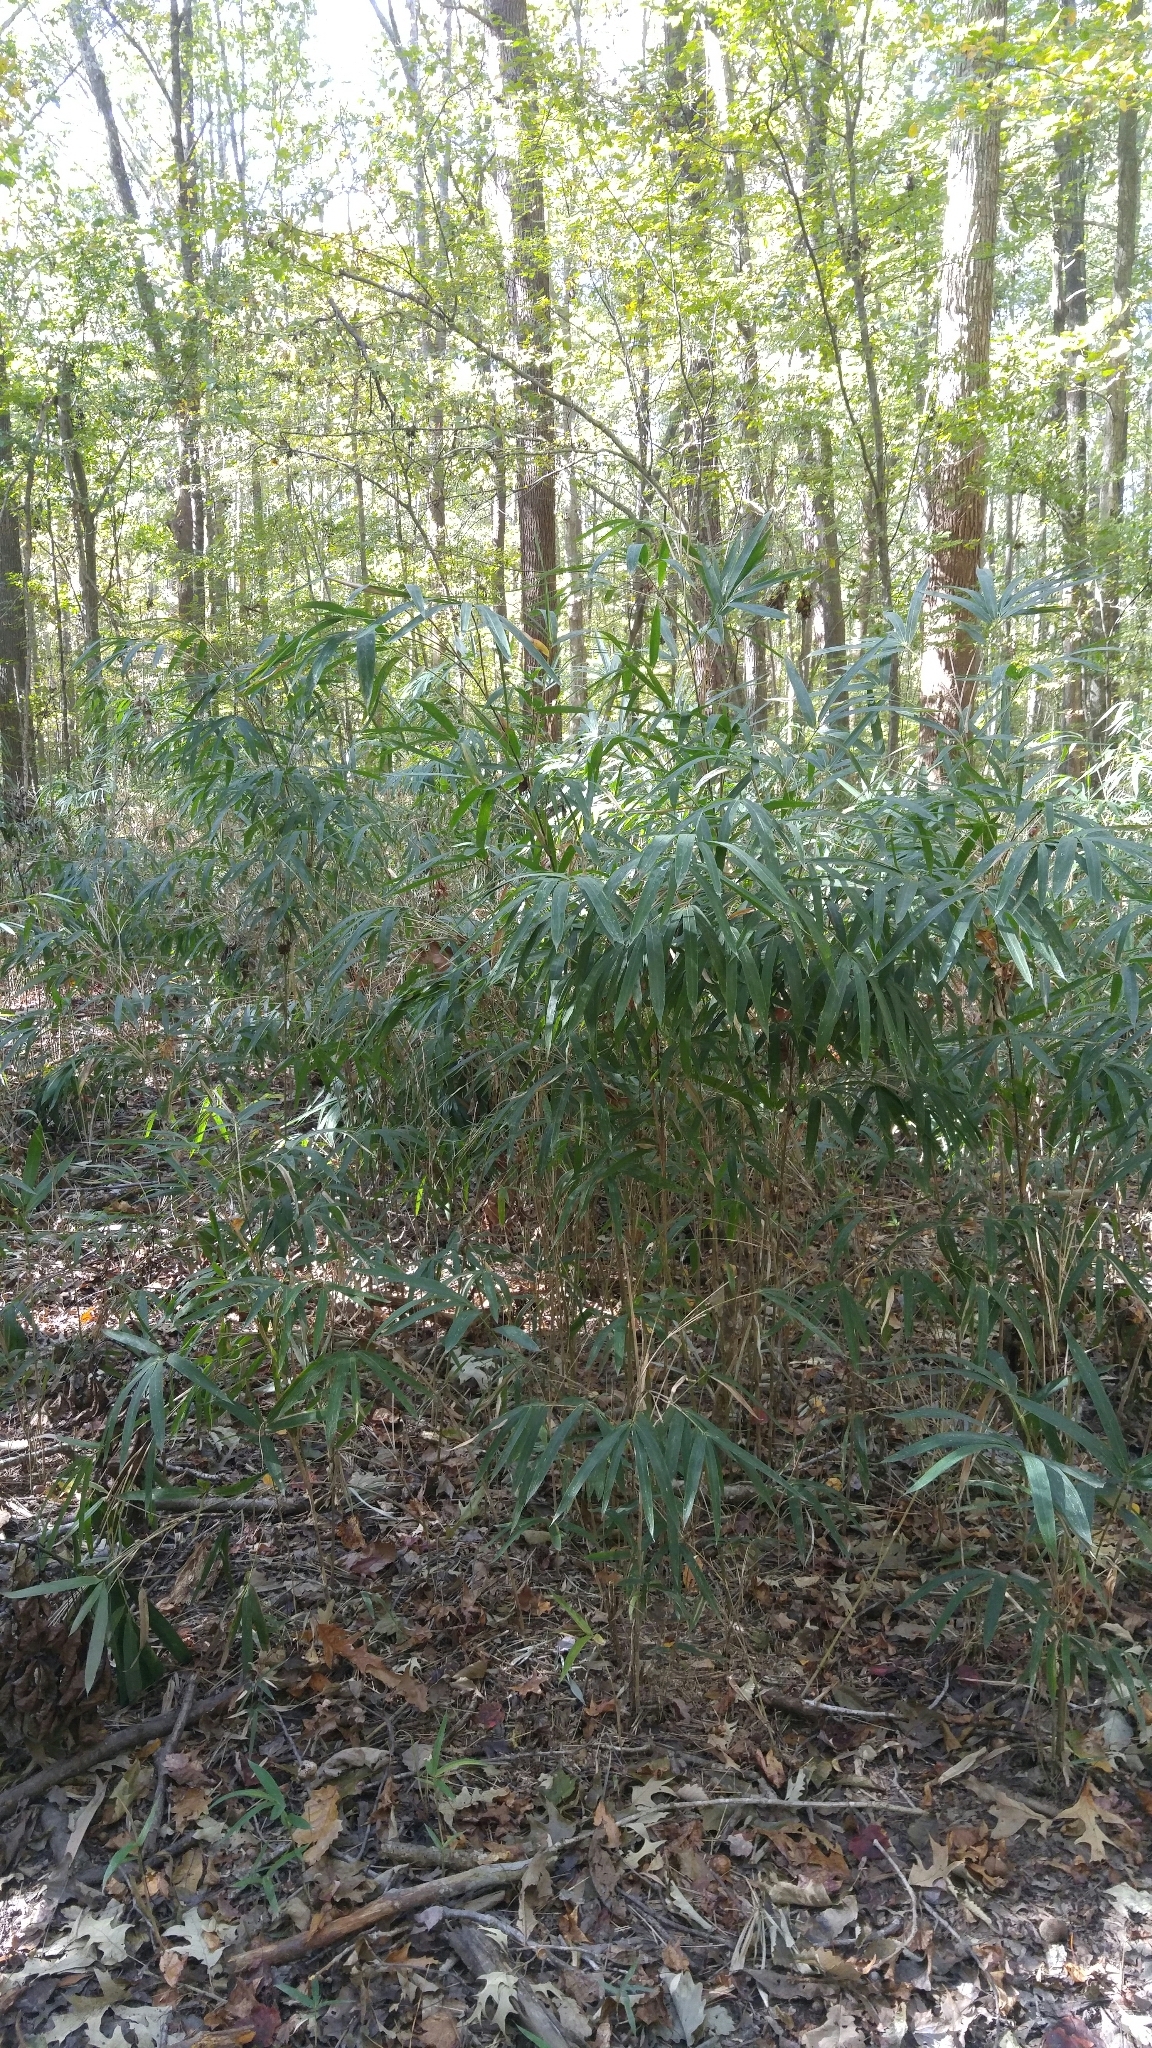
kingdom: Plantae
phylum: Tracheophyta
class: Liliopsida
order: Poales
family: Poaceae
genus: Arundinaria
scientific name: Arundinaria tecta
